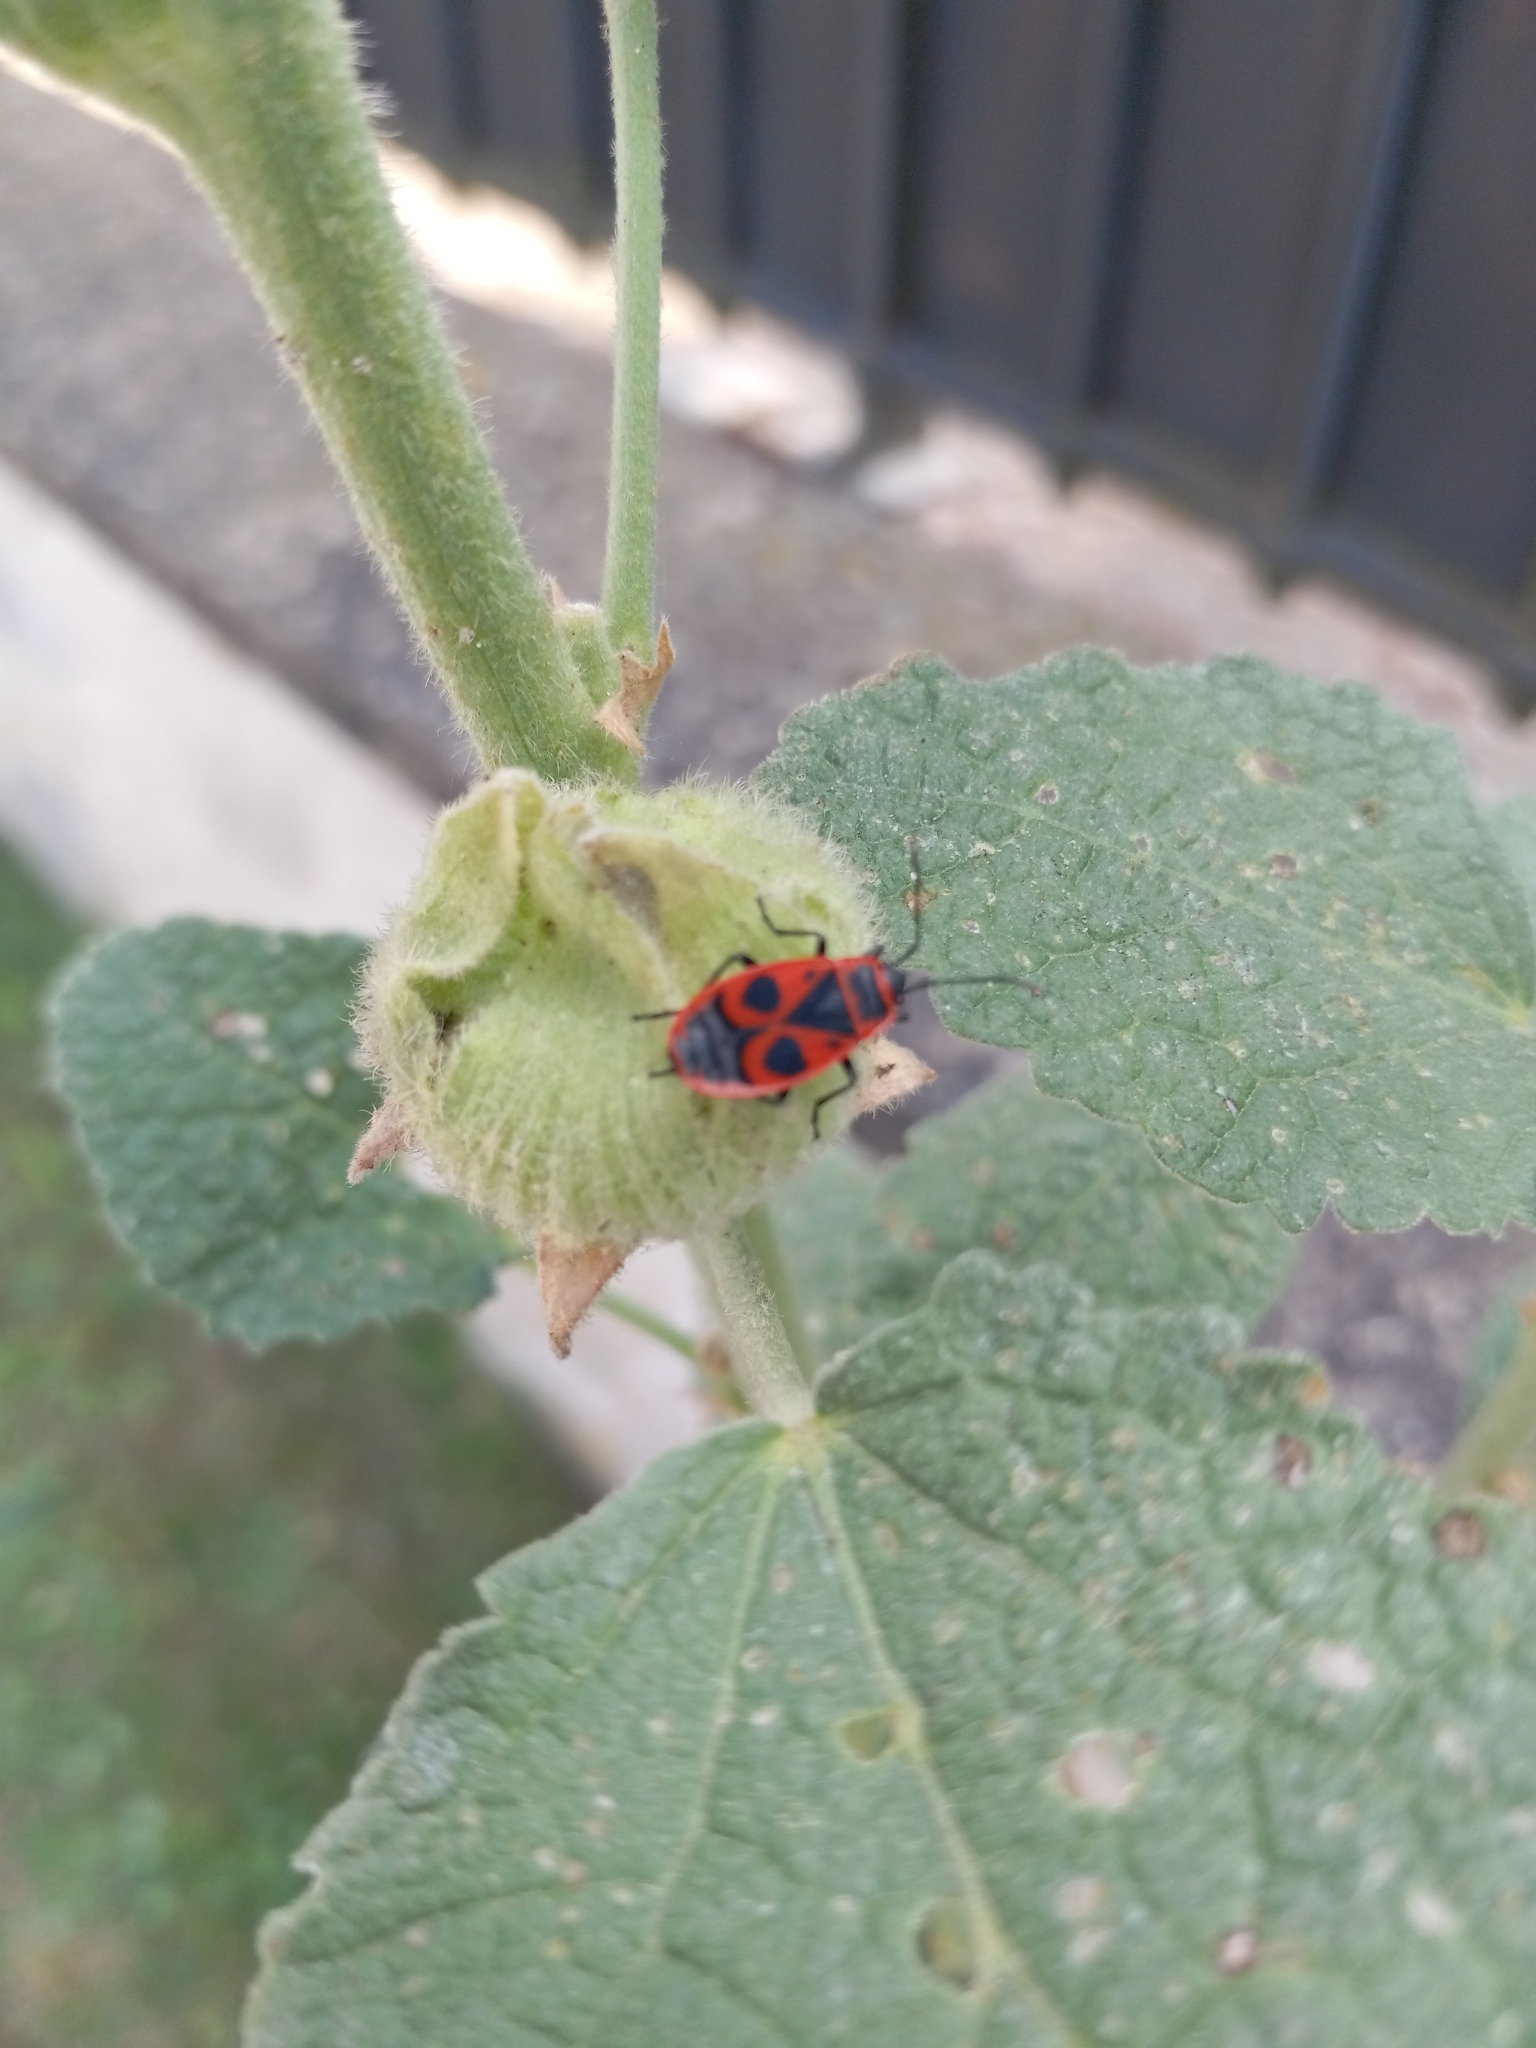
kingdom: Animalia
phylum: Arthropoda
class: Insecta
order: Hemiptera
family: Pyrrhocoridae
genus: Pyrrhocoris
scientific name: Pyrrhocoris apterus
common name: Firebug
